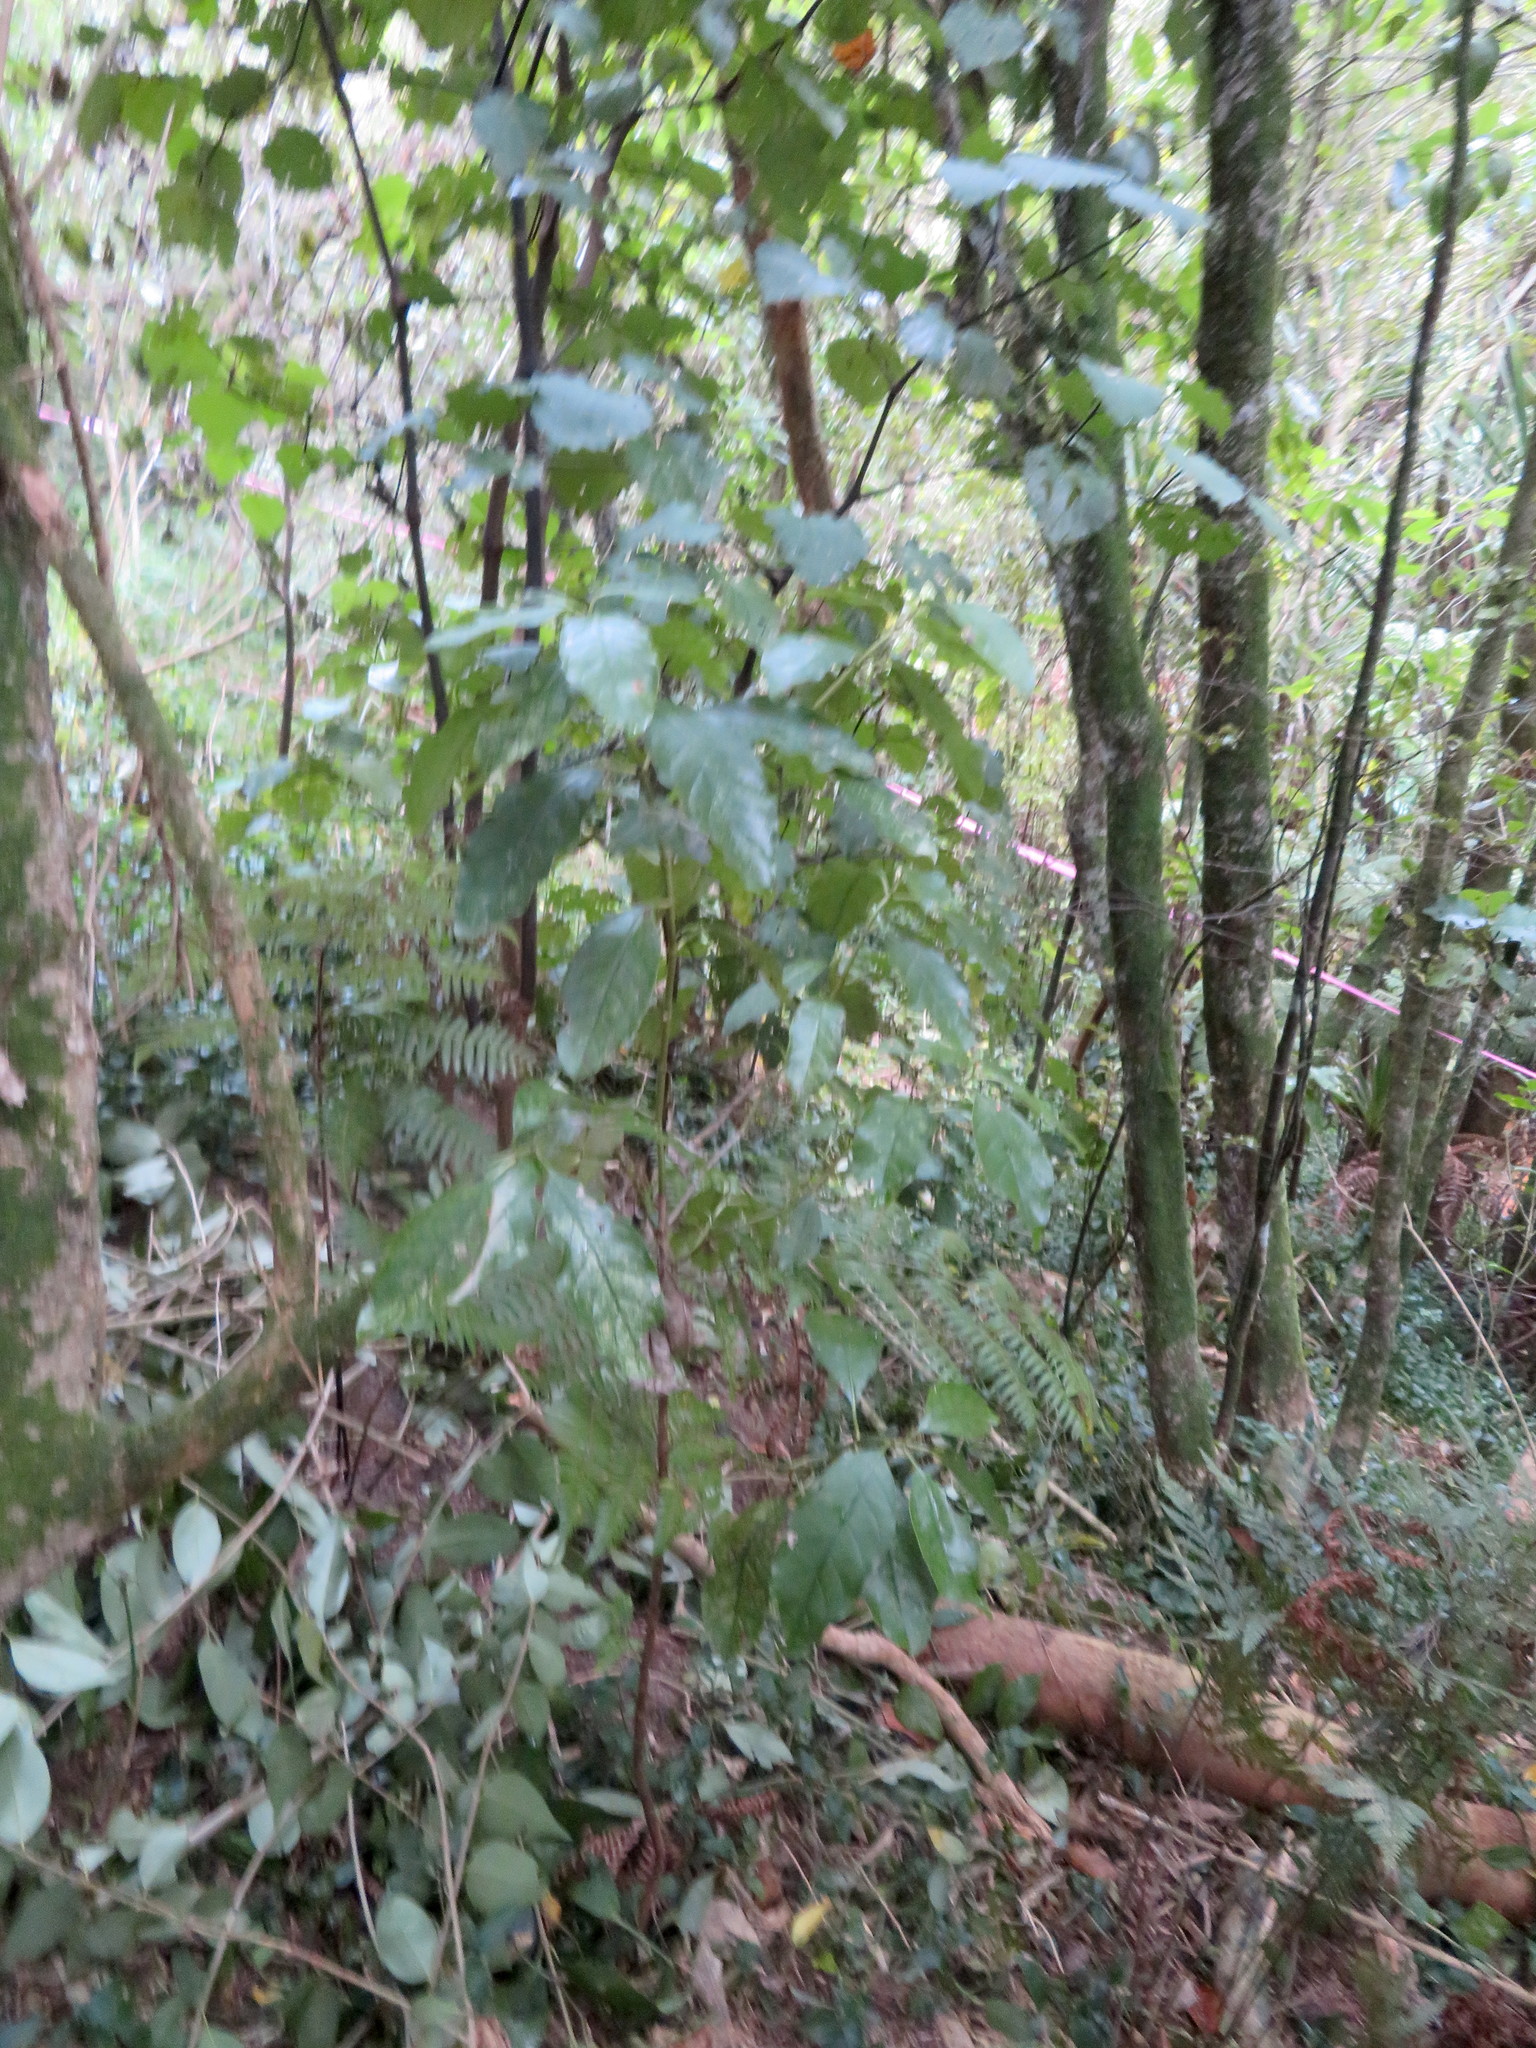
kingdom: Plantae
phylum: Tracheophyta
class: Magnoliopsida
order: Gentianales
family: Rubiaceae
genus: Coprosma
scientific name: Coprosma autumnalis
